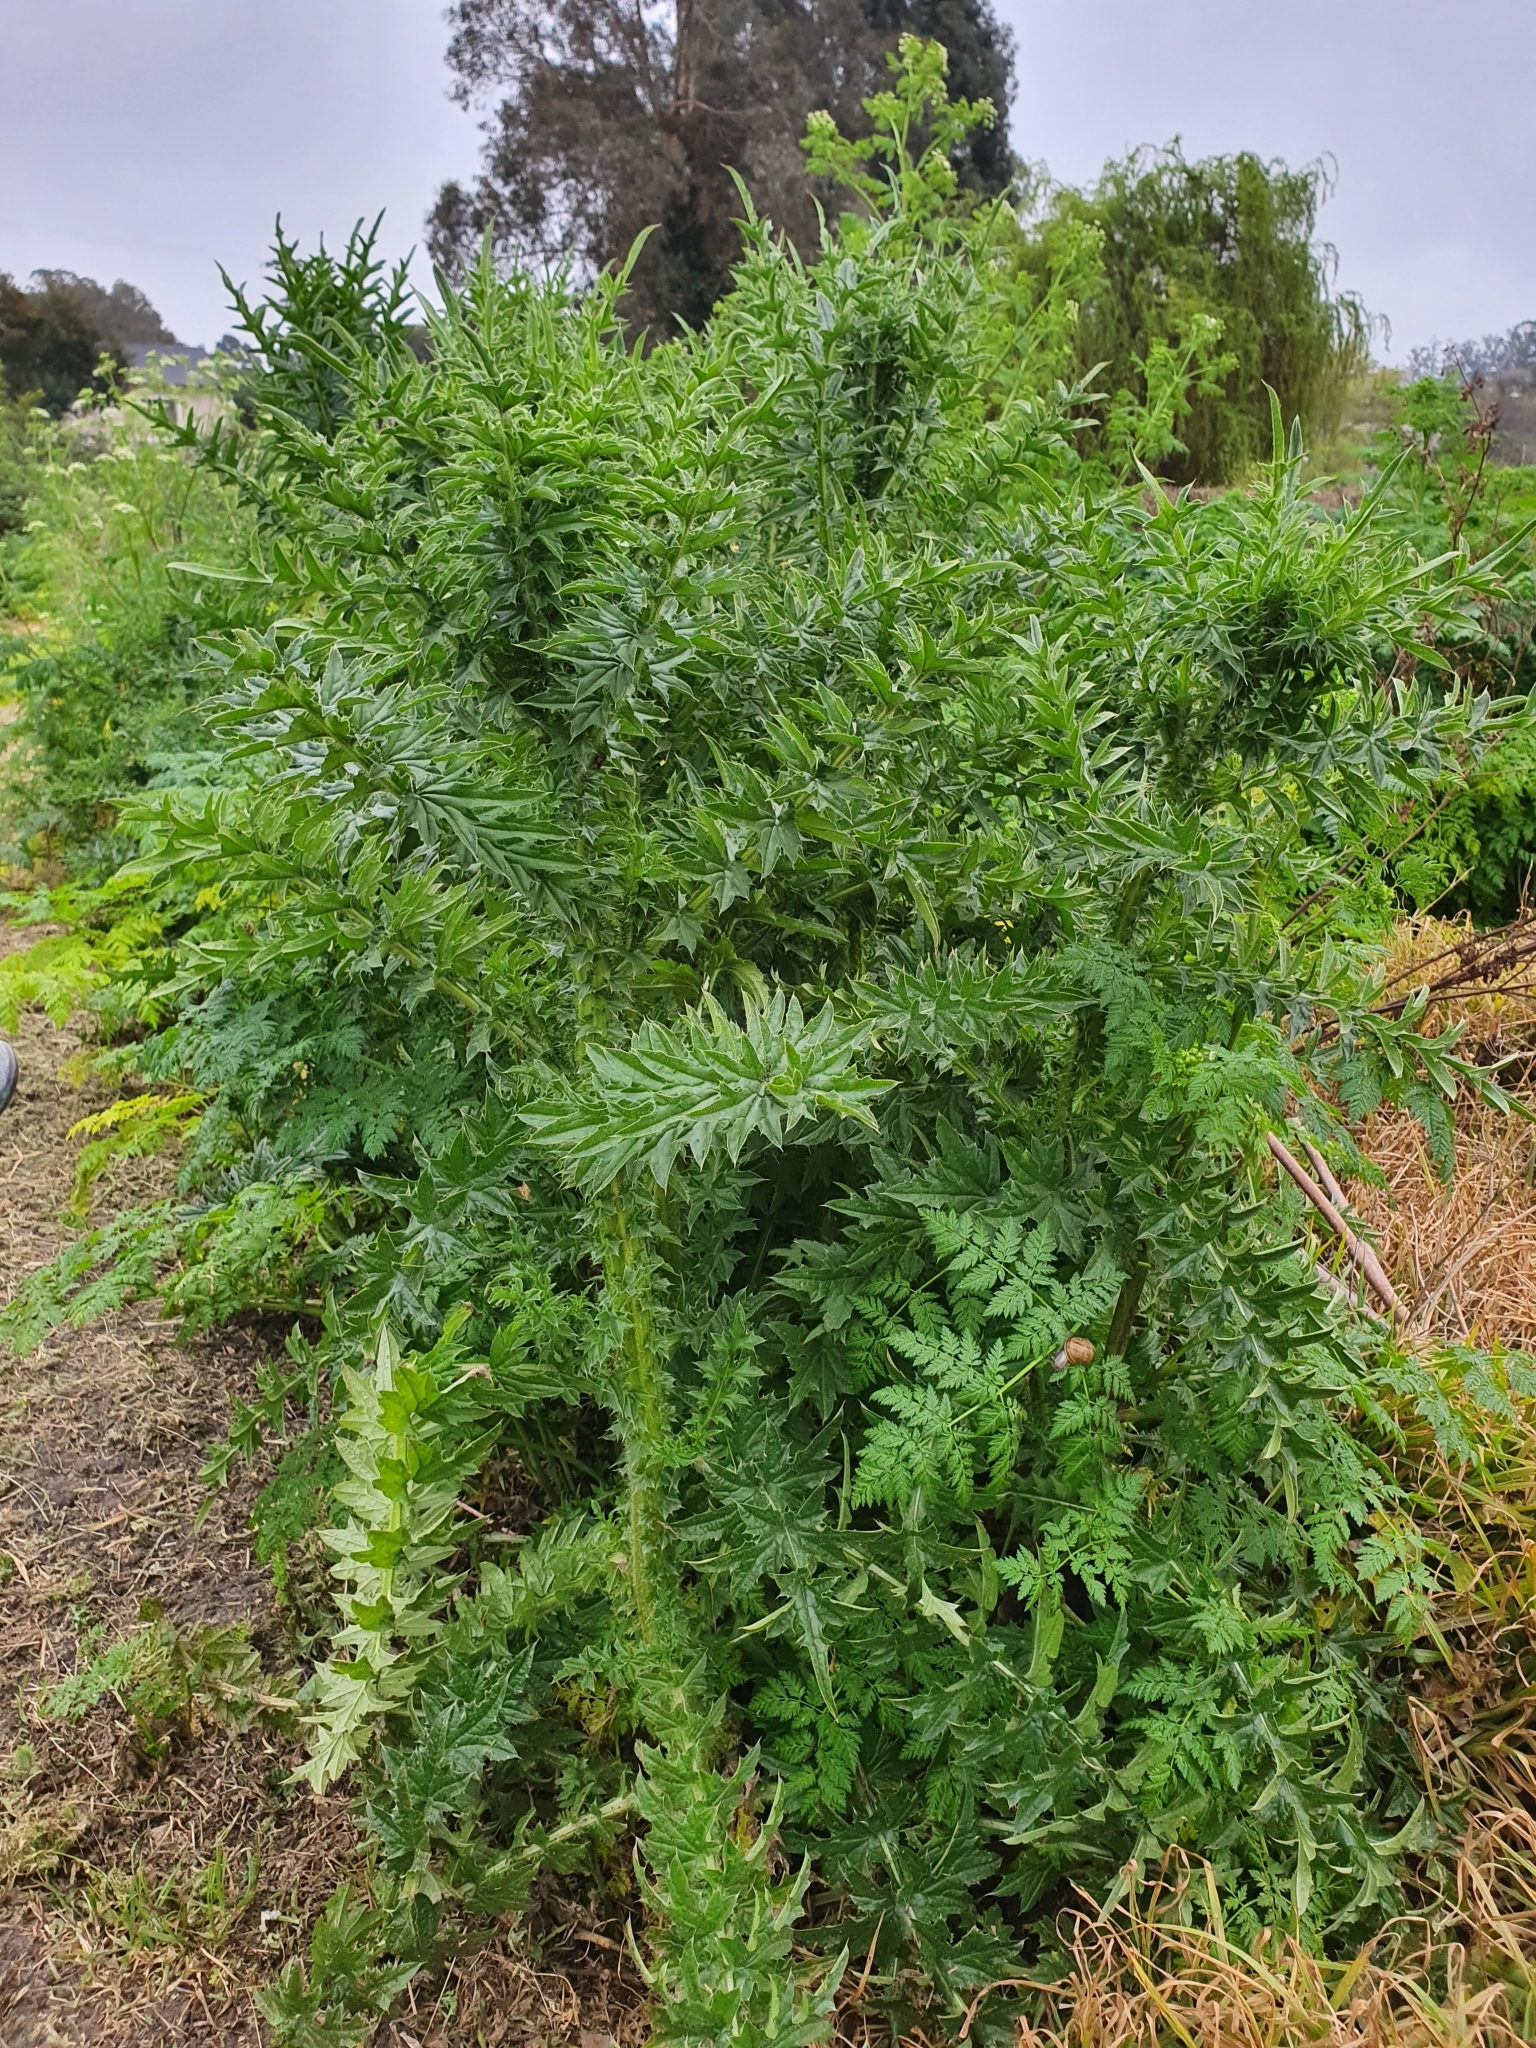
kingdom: Plantae
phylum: Tracheophyta
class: Magnoliopsida
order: Asterales
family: Asteraceae
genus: Carduus
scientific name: Carduus acanthoides
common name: Plumeless thistle
